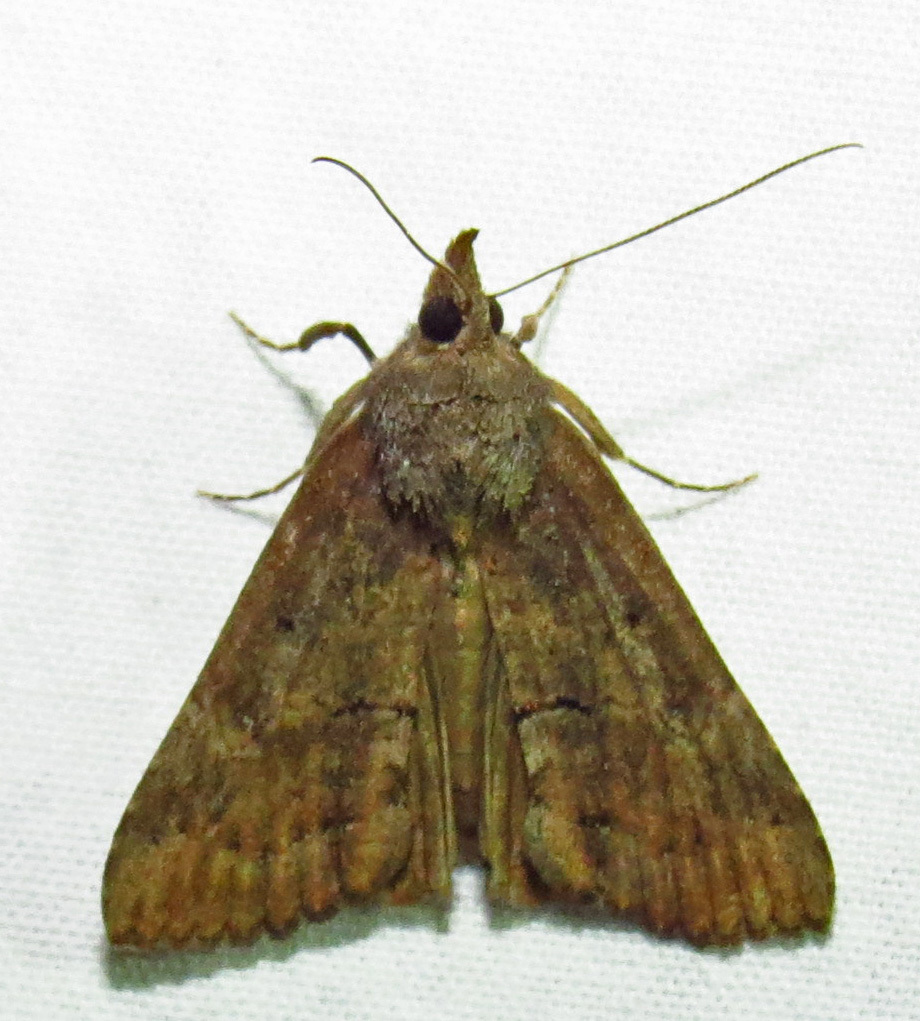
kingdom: Animalia
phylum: Arthropoda
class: Insecta
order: Lepidoptera
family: Erebidae
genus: Hypena
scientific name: Hypena scabra
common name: Green cloverworm
